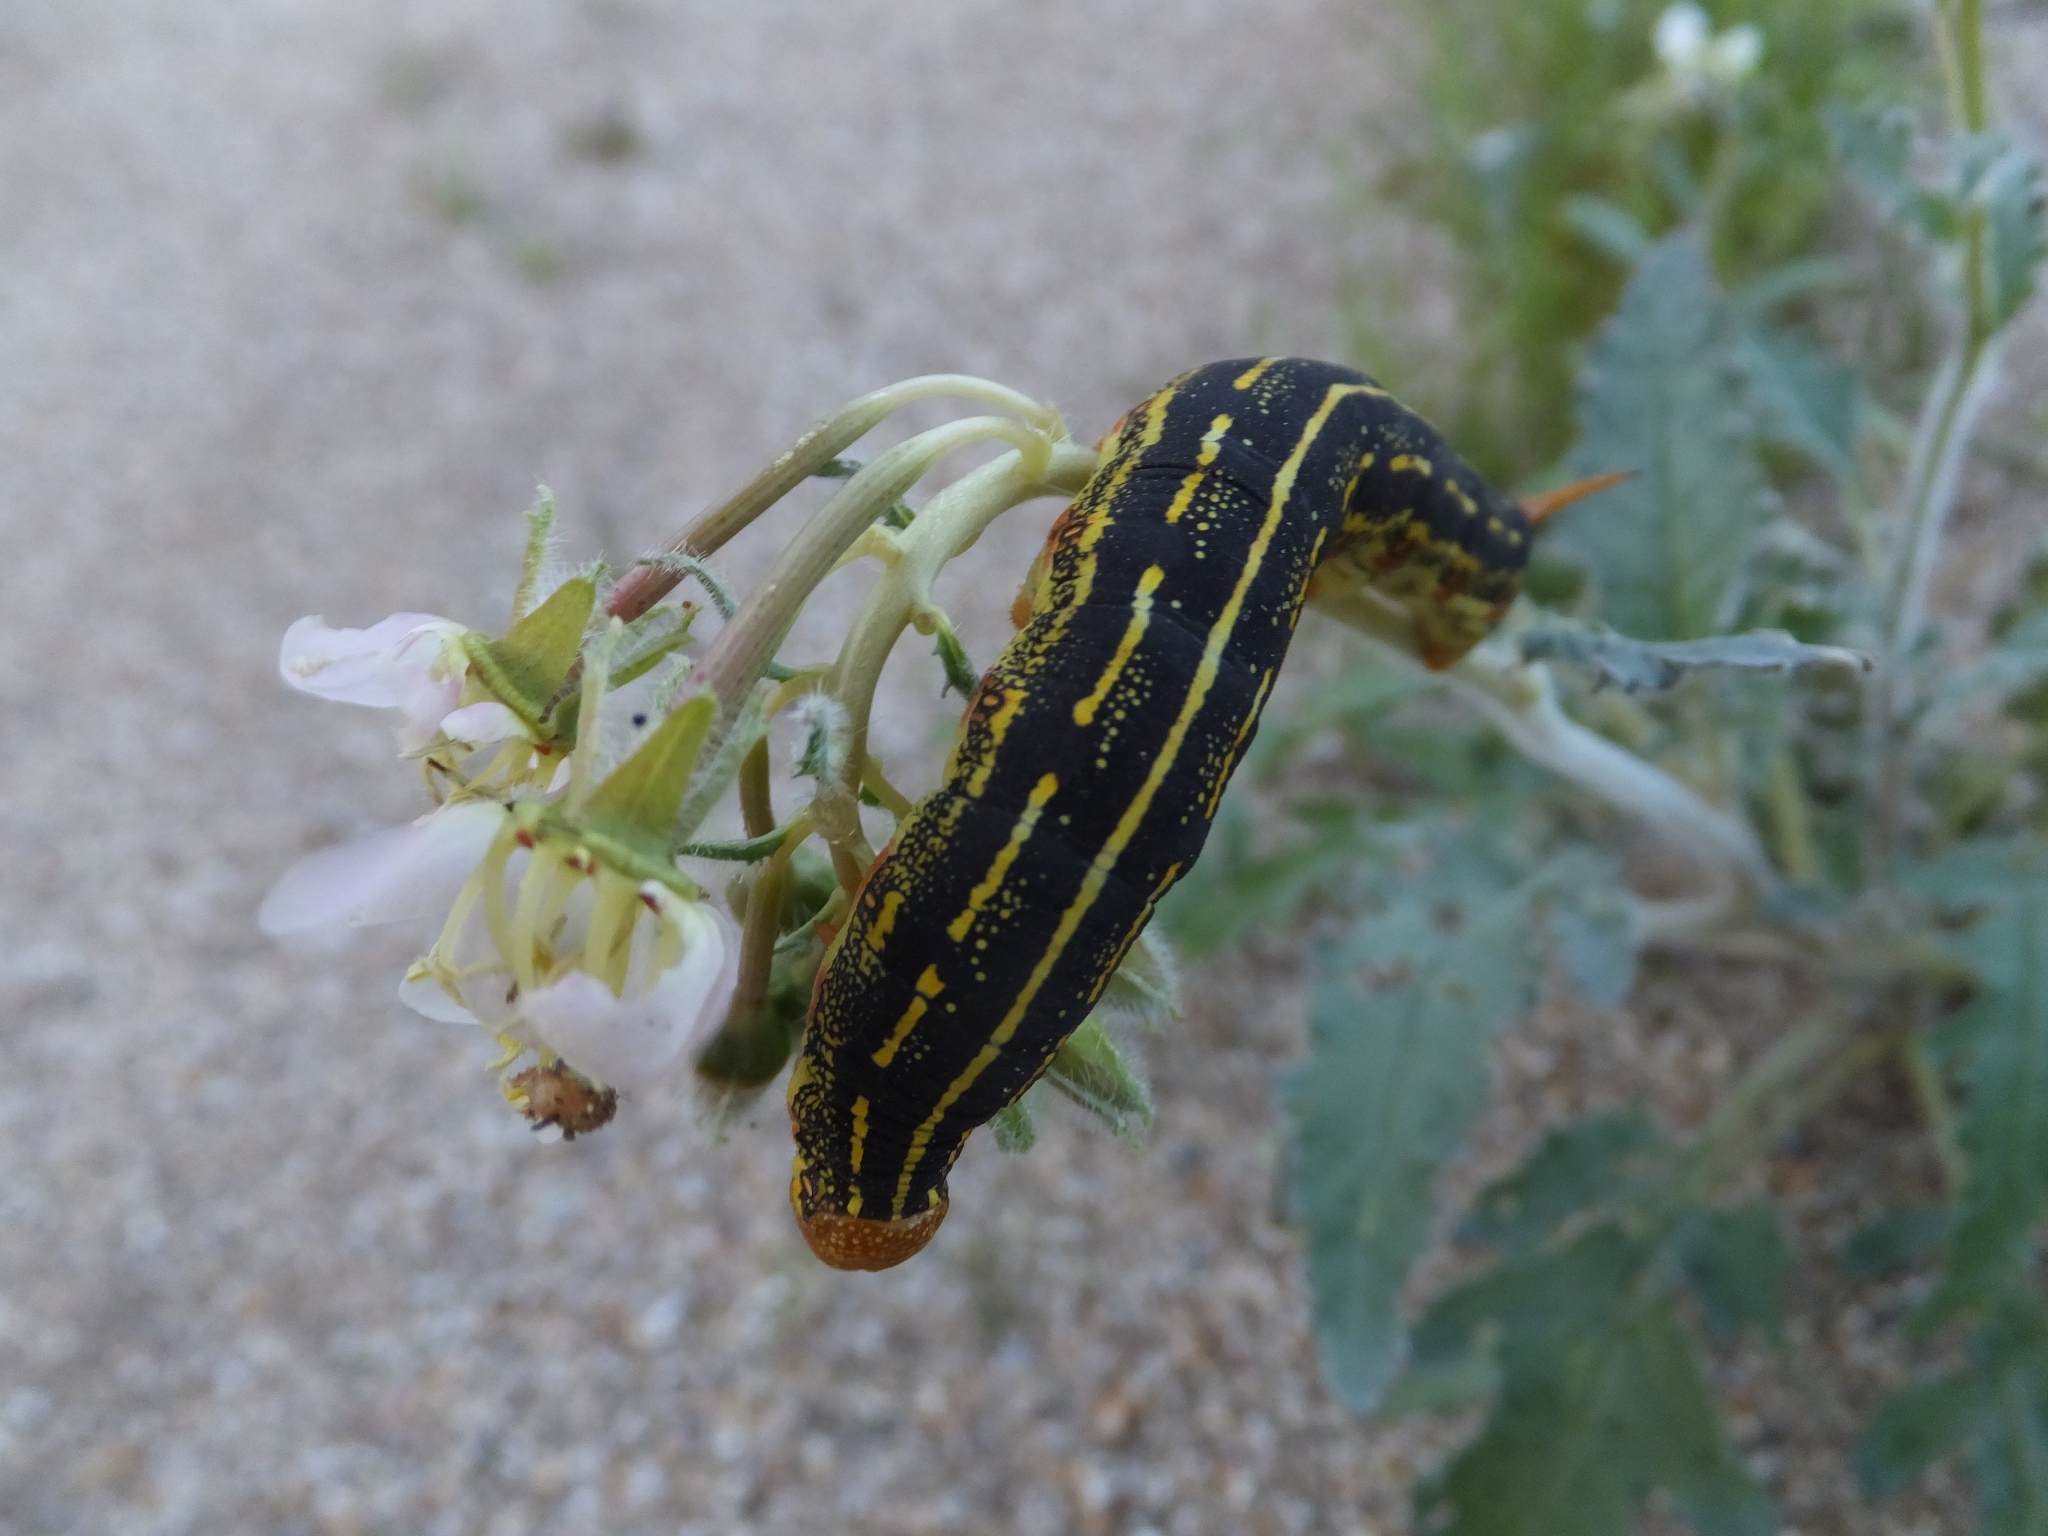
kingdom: Animalia
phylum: Arthropoda
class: Insecta
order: Lepidoptera
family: Sphingidae
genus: Hyles
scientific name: Hyles lineata
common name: White-lined sphinx
